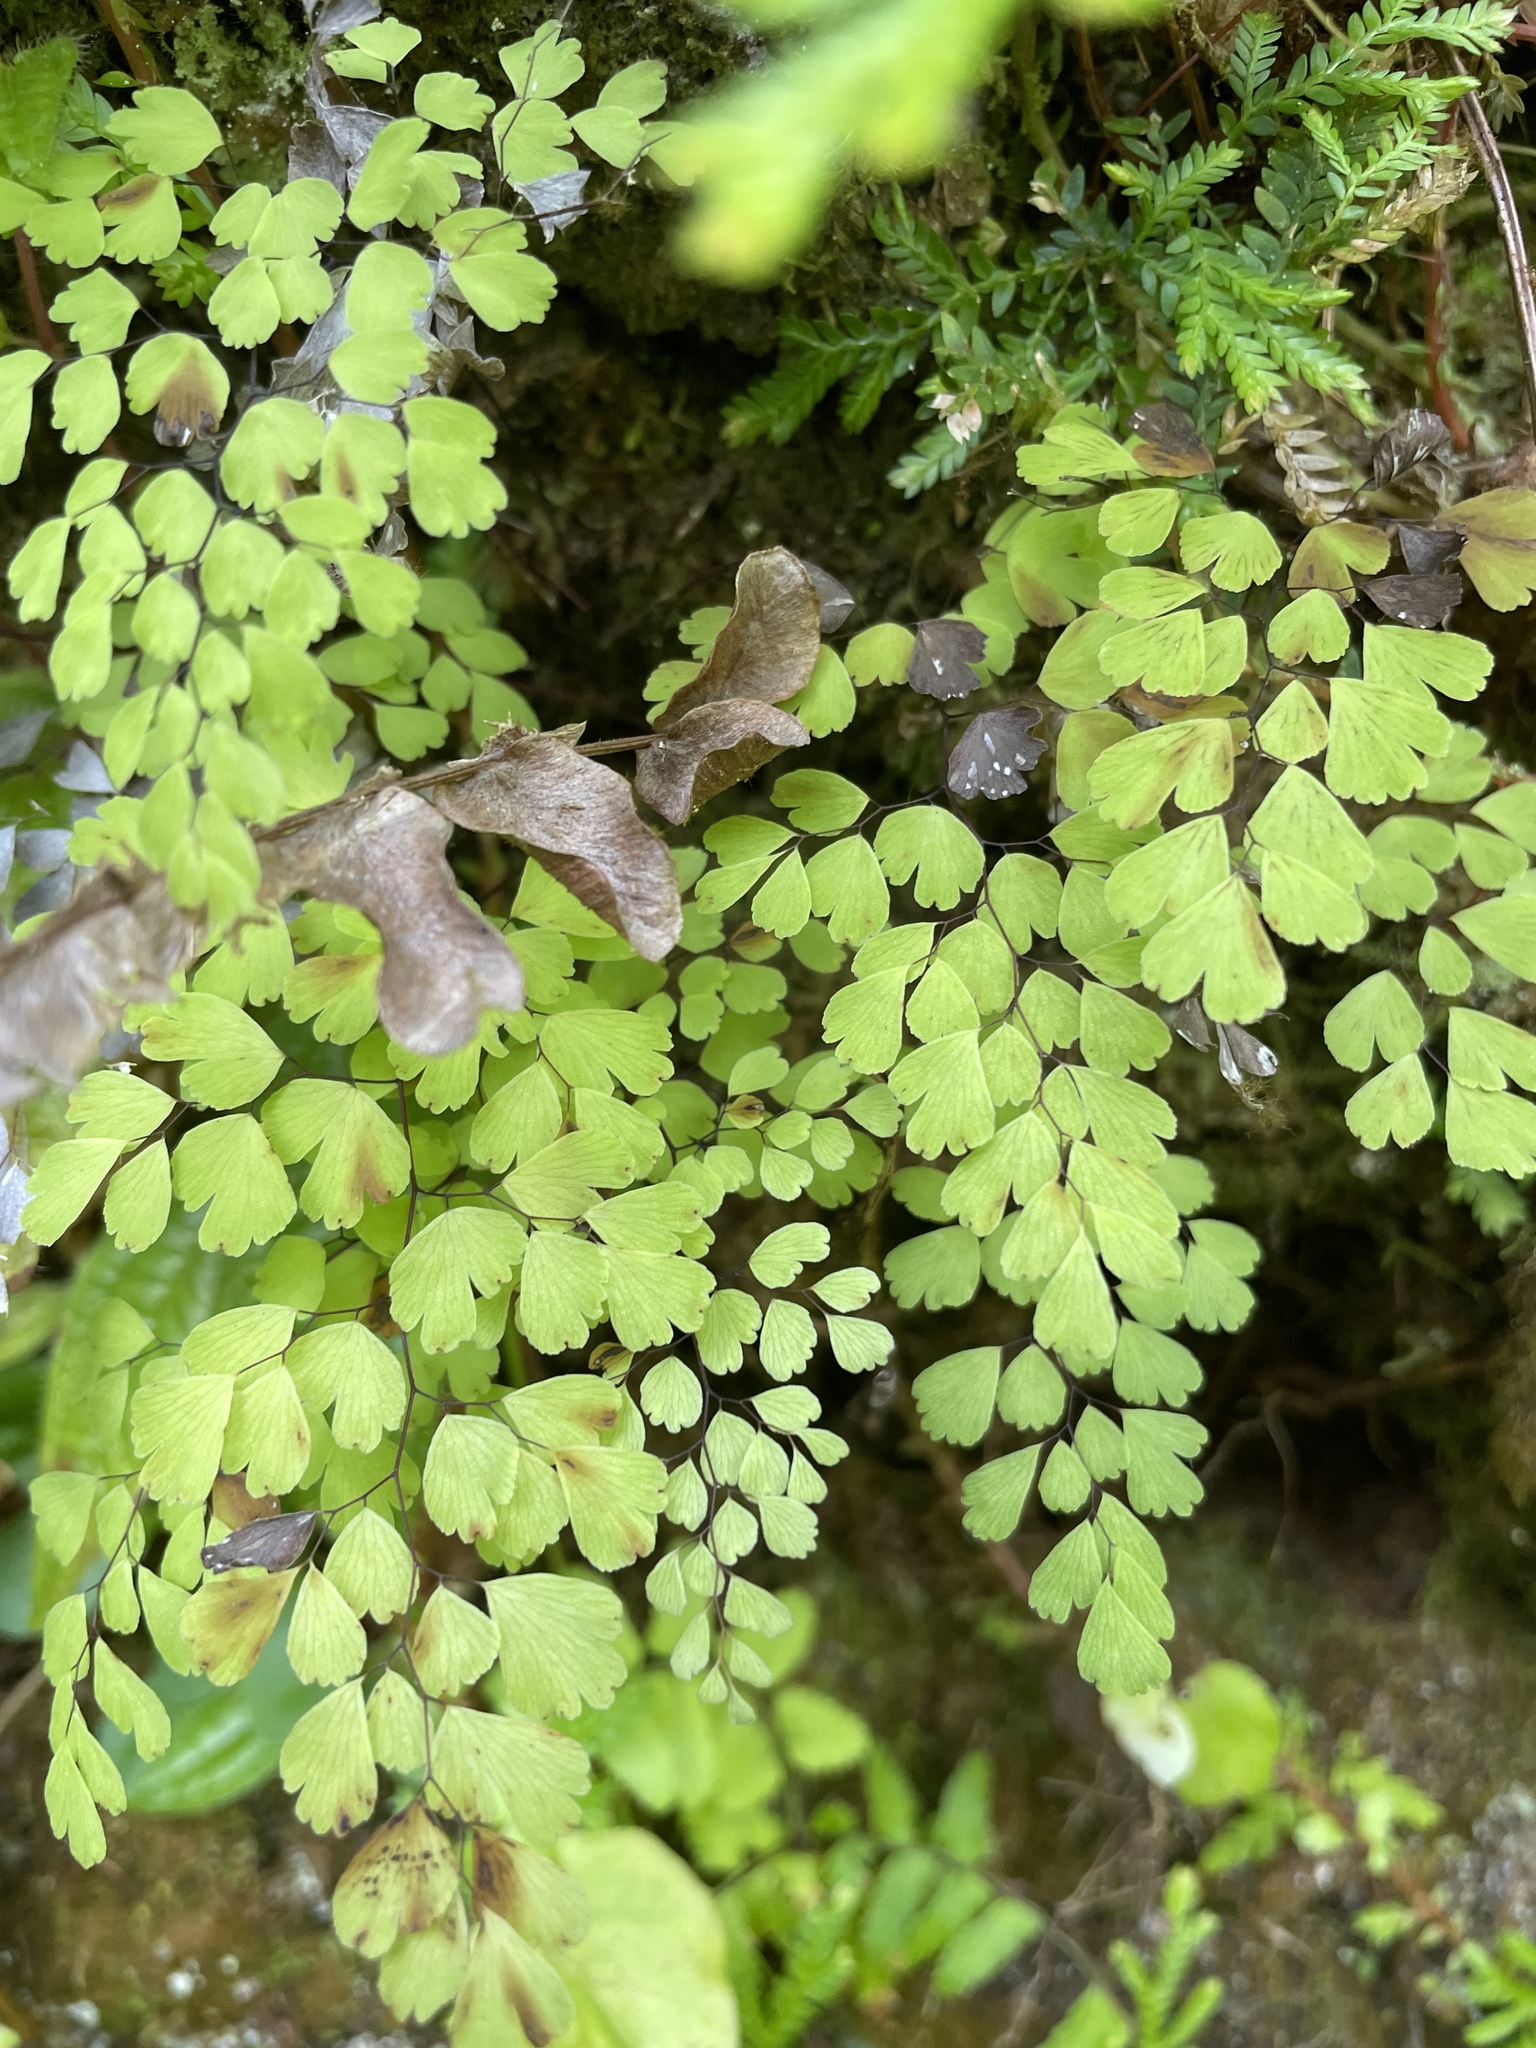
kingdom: Plantae
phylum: Tracheophyta
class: Polypodiopsida
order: Polypodiales
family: Pteridaceae
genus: Adiantum
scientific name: Adiantum raddianum
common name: Delta maidenhair fern
